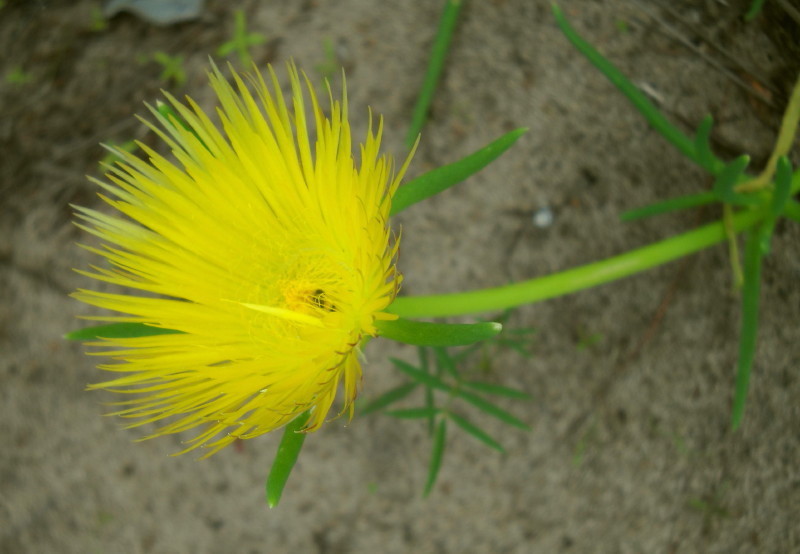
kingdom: Plantae
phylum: Tracheophyta
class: Magnoliopsida
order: Caryophyllales
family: Aizoaceae
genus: Conicosia
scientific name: Conicosia pugioniformis
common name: Narrow-leaved iceplant
